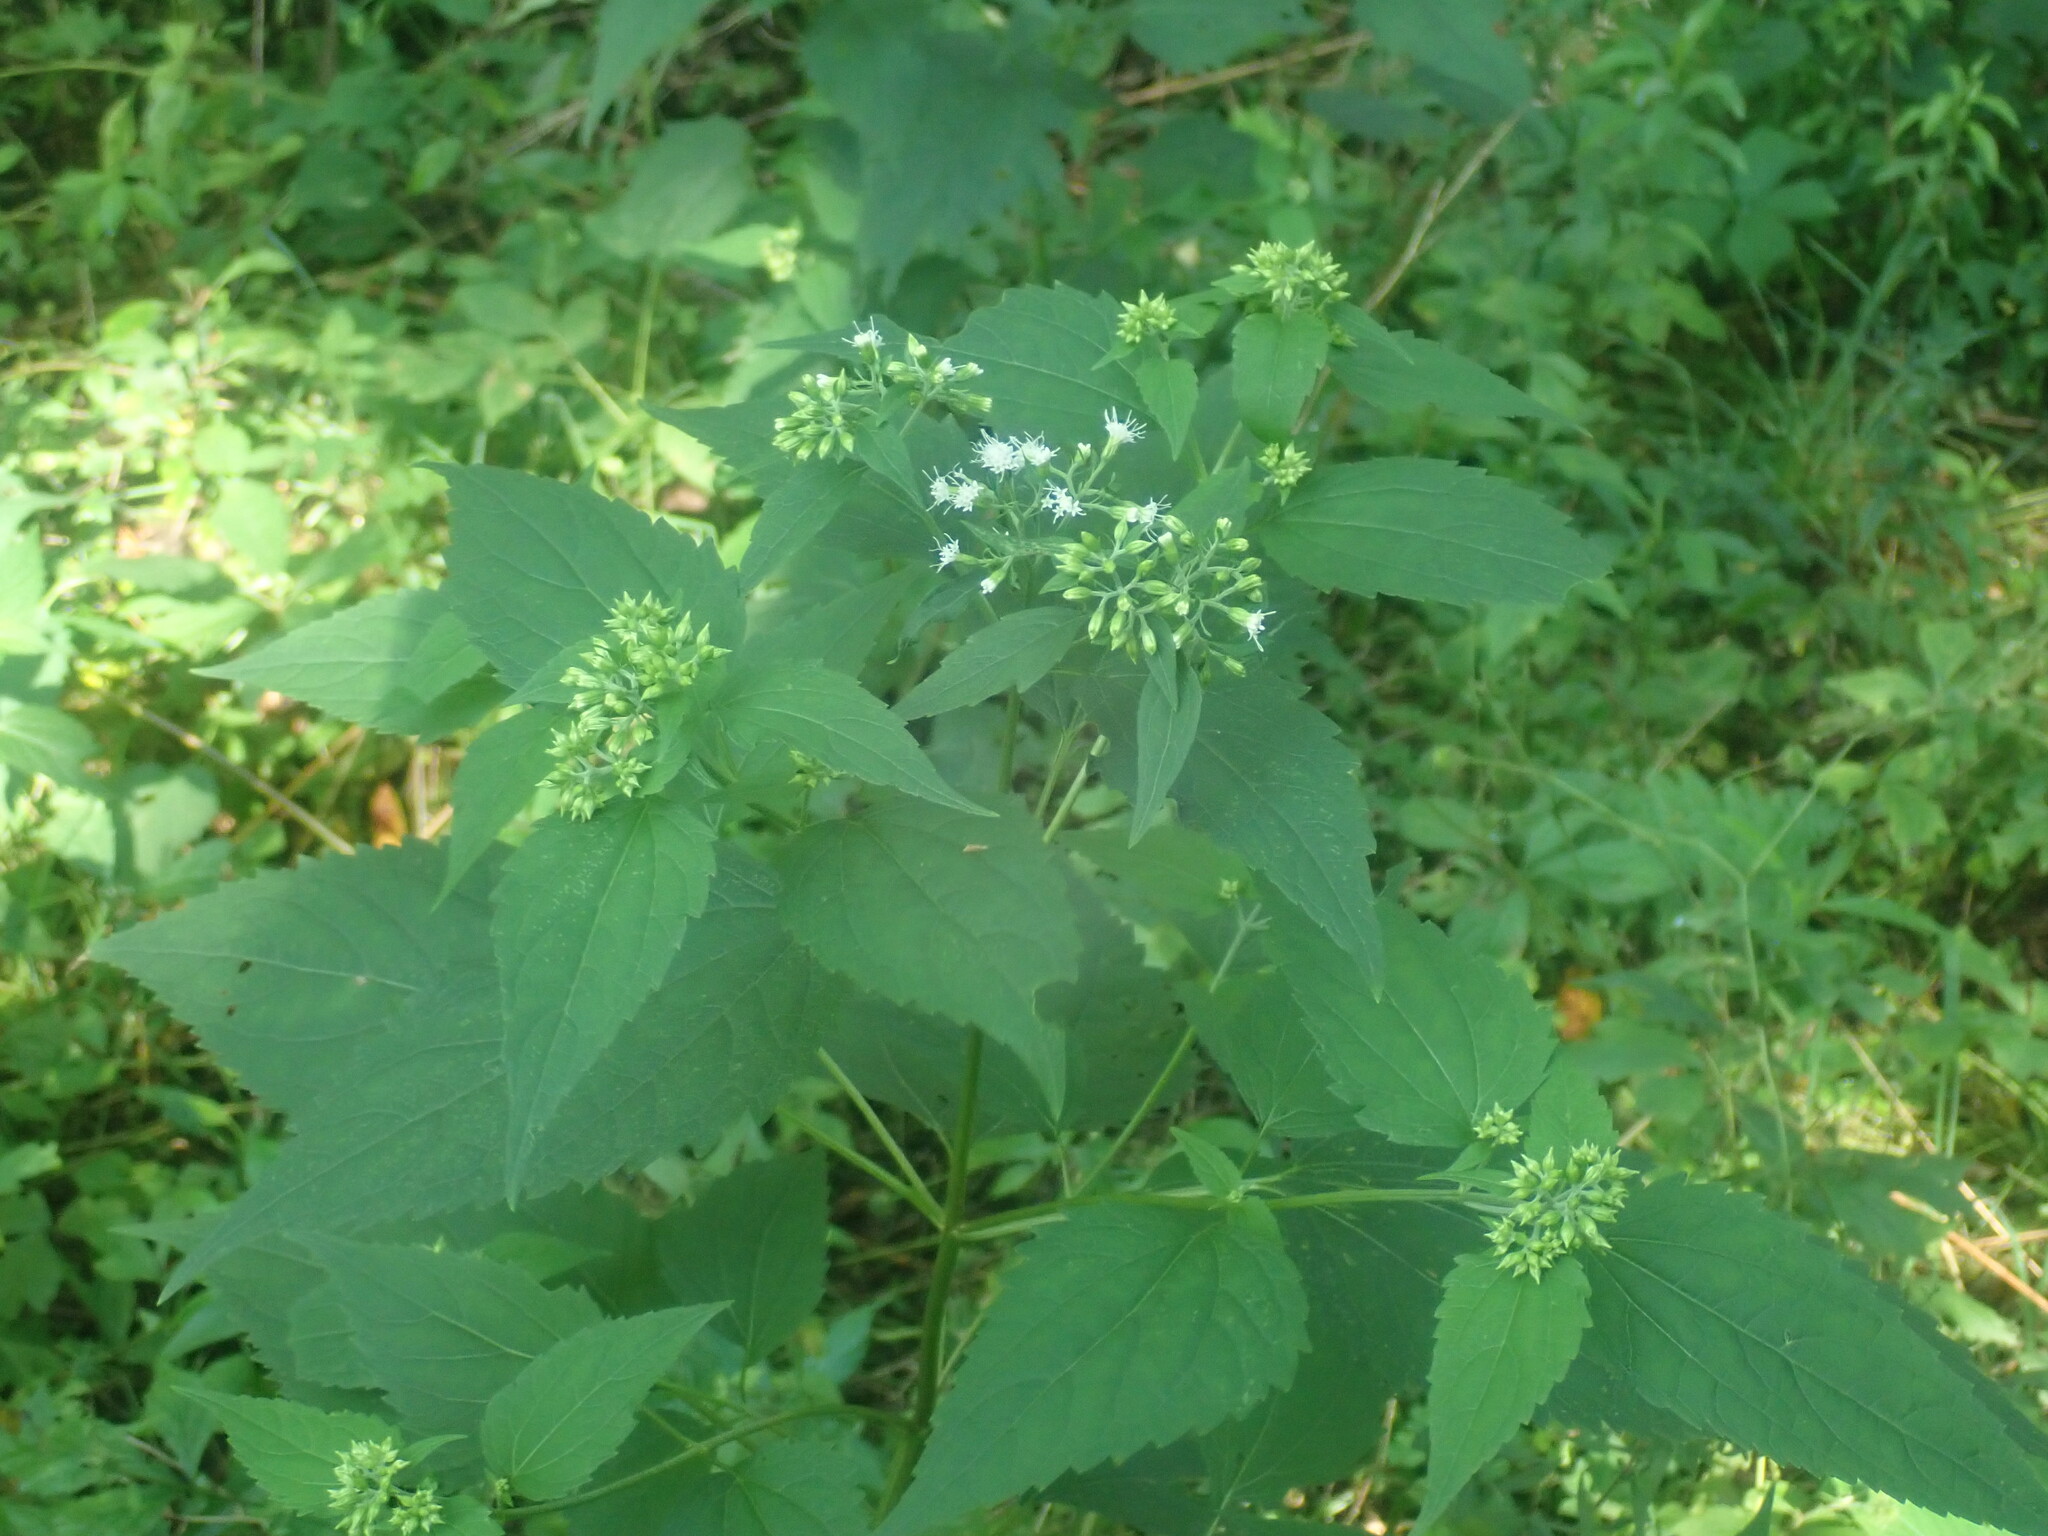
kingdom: Plantae
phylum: Tracheophyta
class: Magnoliopsida
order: Asterales
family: Asteraceae
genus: Ageratina
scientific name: Ageratina altissima
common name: White snakeroot
